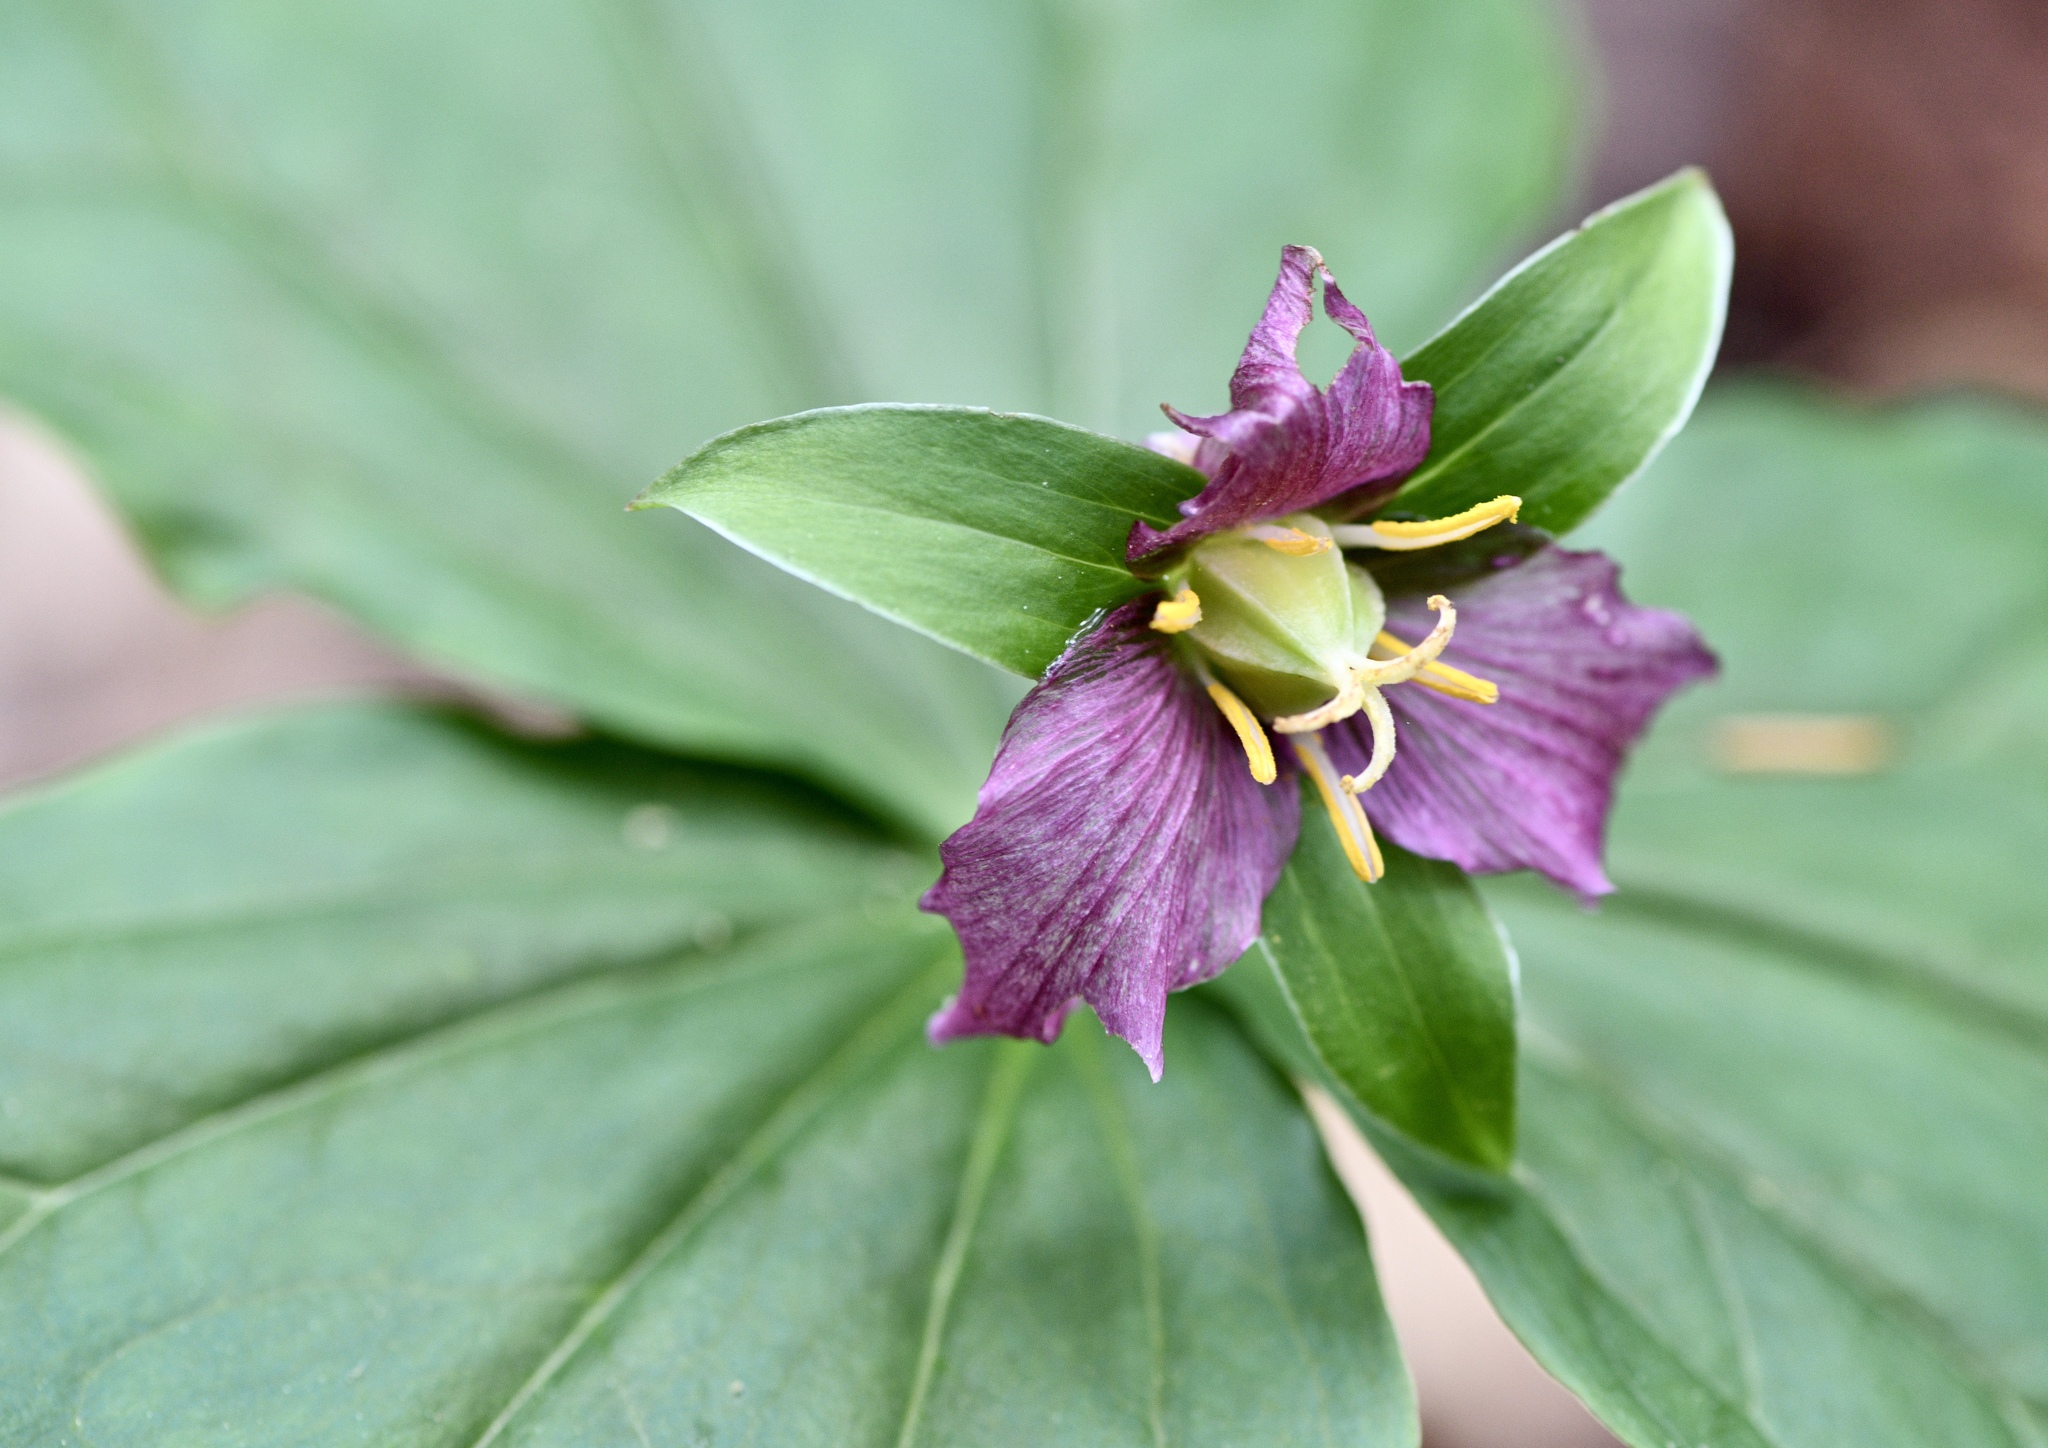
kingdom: Plantae
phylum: Tracheophyta
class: Liliopsida
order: Liliales
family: Melanthiaceae
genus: Trillium
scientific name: Trillium ovatum
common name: Pacific trillium
